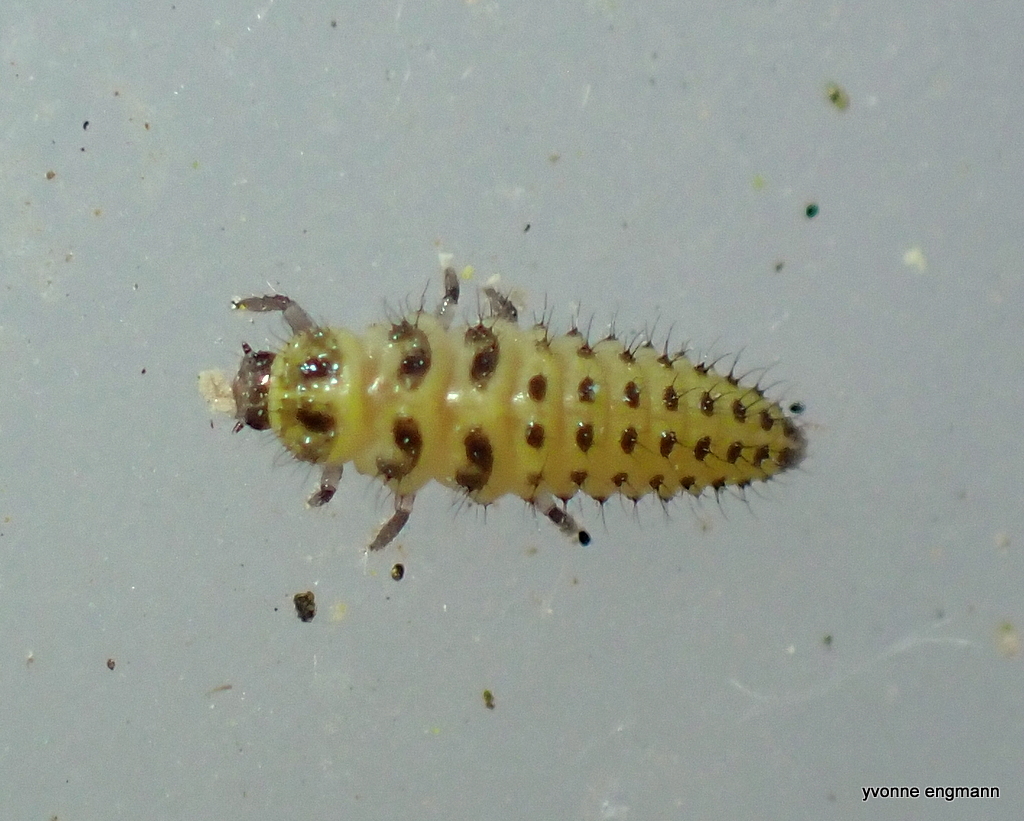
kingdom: Animalia
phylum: Arthropoda
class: Insecta
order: Coleoptera
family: Coccinellidae
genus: Psyllobora
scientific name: Psyllobora vigintiduopunctata
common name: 22-spot ladybird
